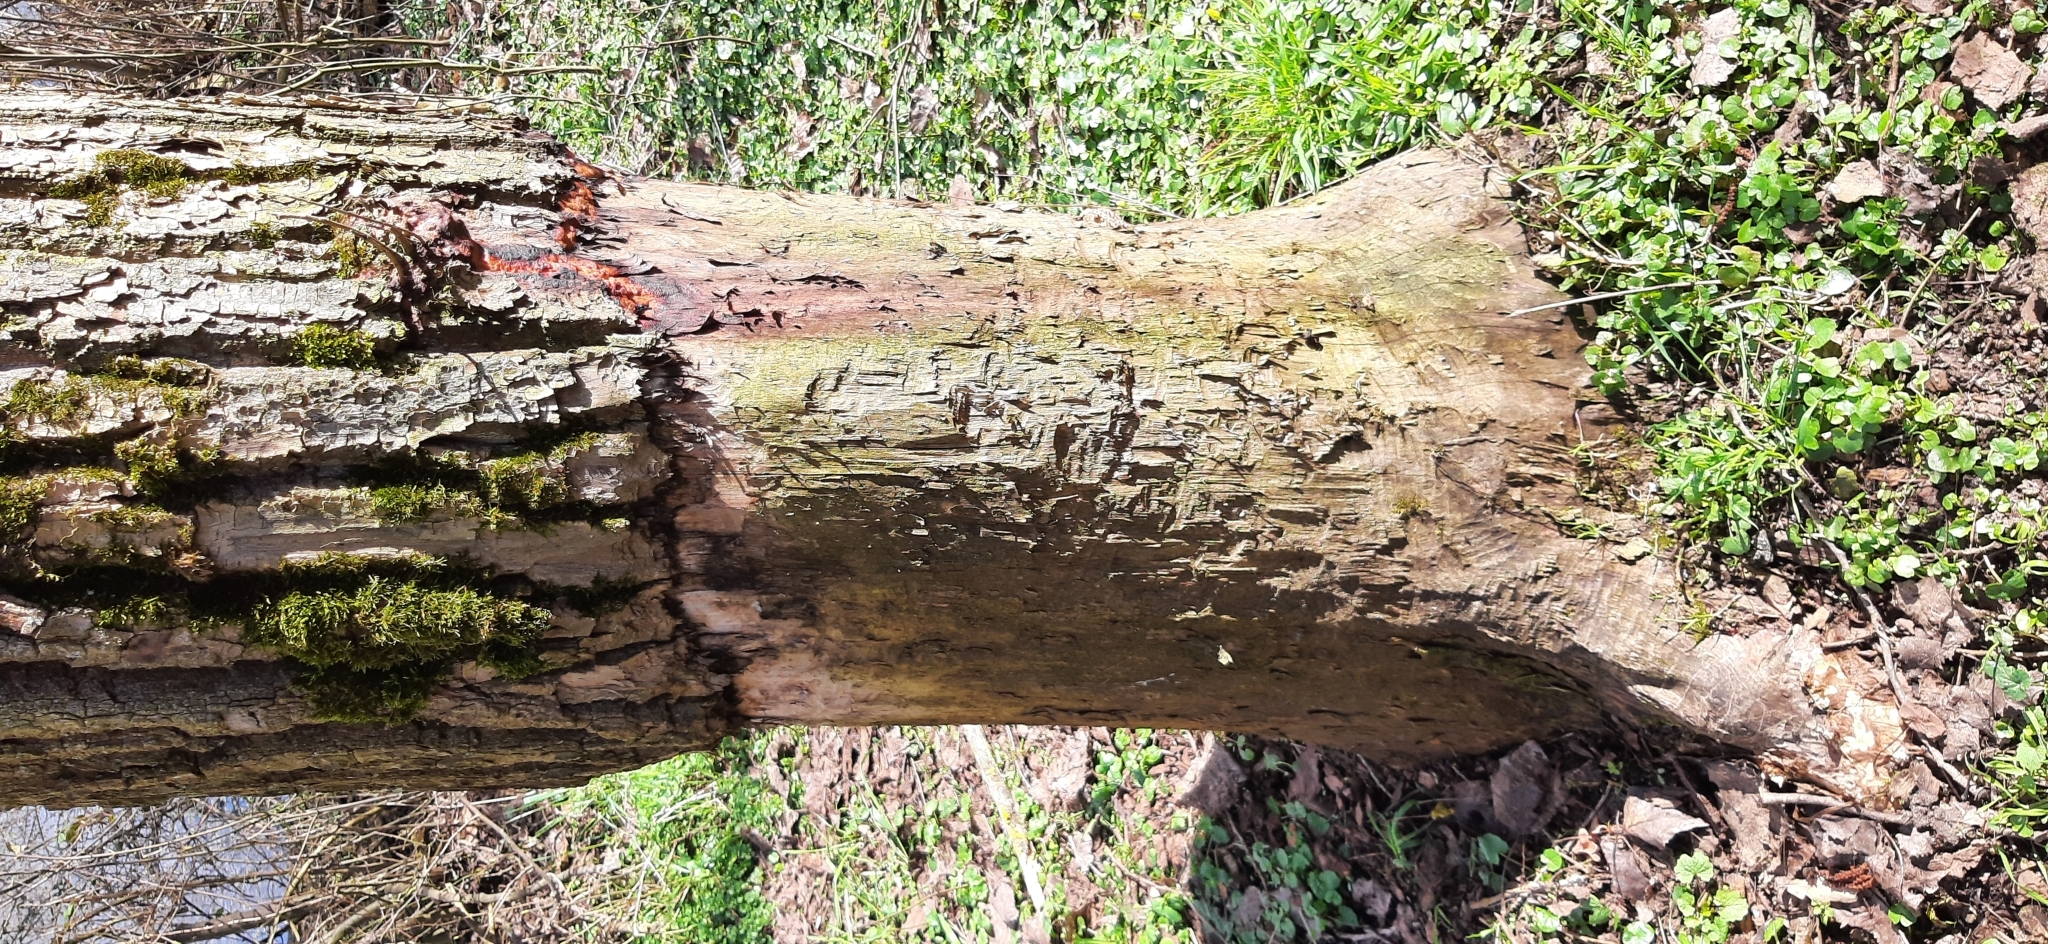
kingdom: Animalia
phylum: Chordata
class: Mammalia
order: Rodentia
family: Castoridae
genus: Castor
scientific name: Castor fiber
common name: Eurasian beaver
